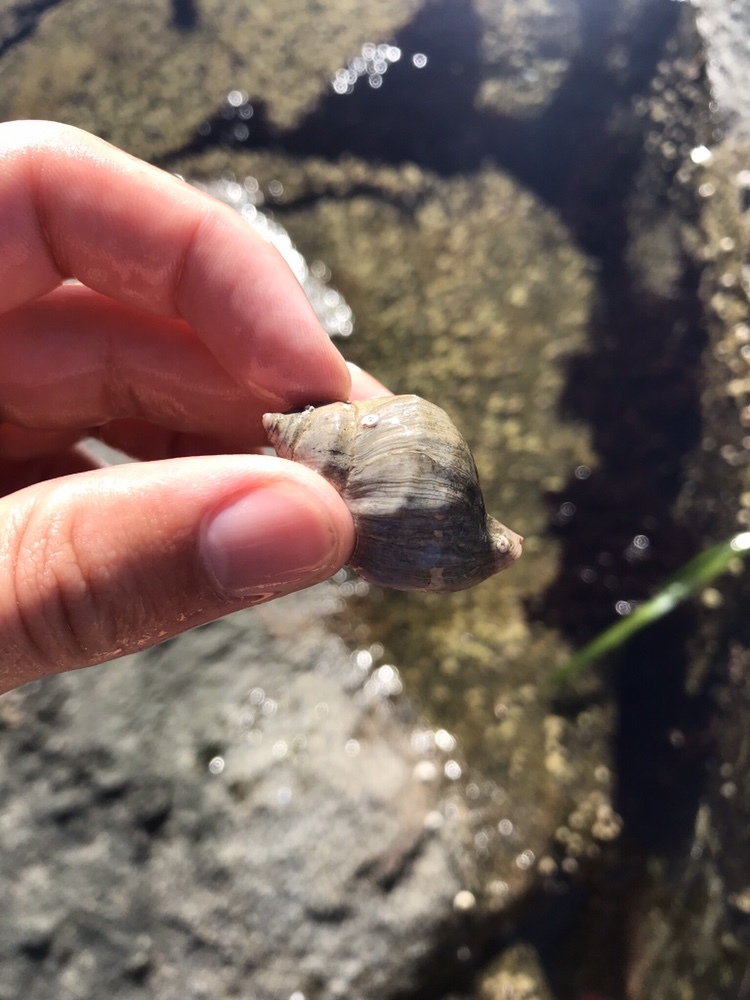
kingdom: Animalia
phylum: Mollusca
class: Gastropoda
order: Neogastropoda
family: Muricidae
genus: Nucella
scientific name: Nucella lamellosa
